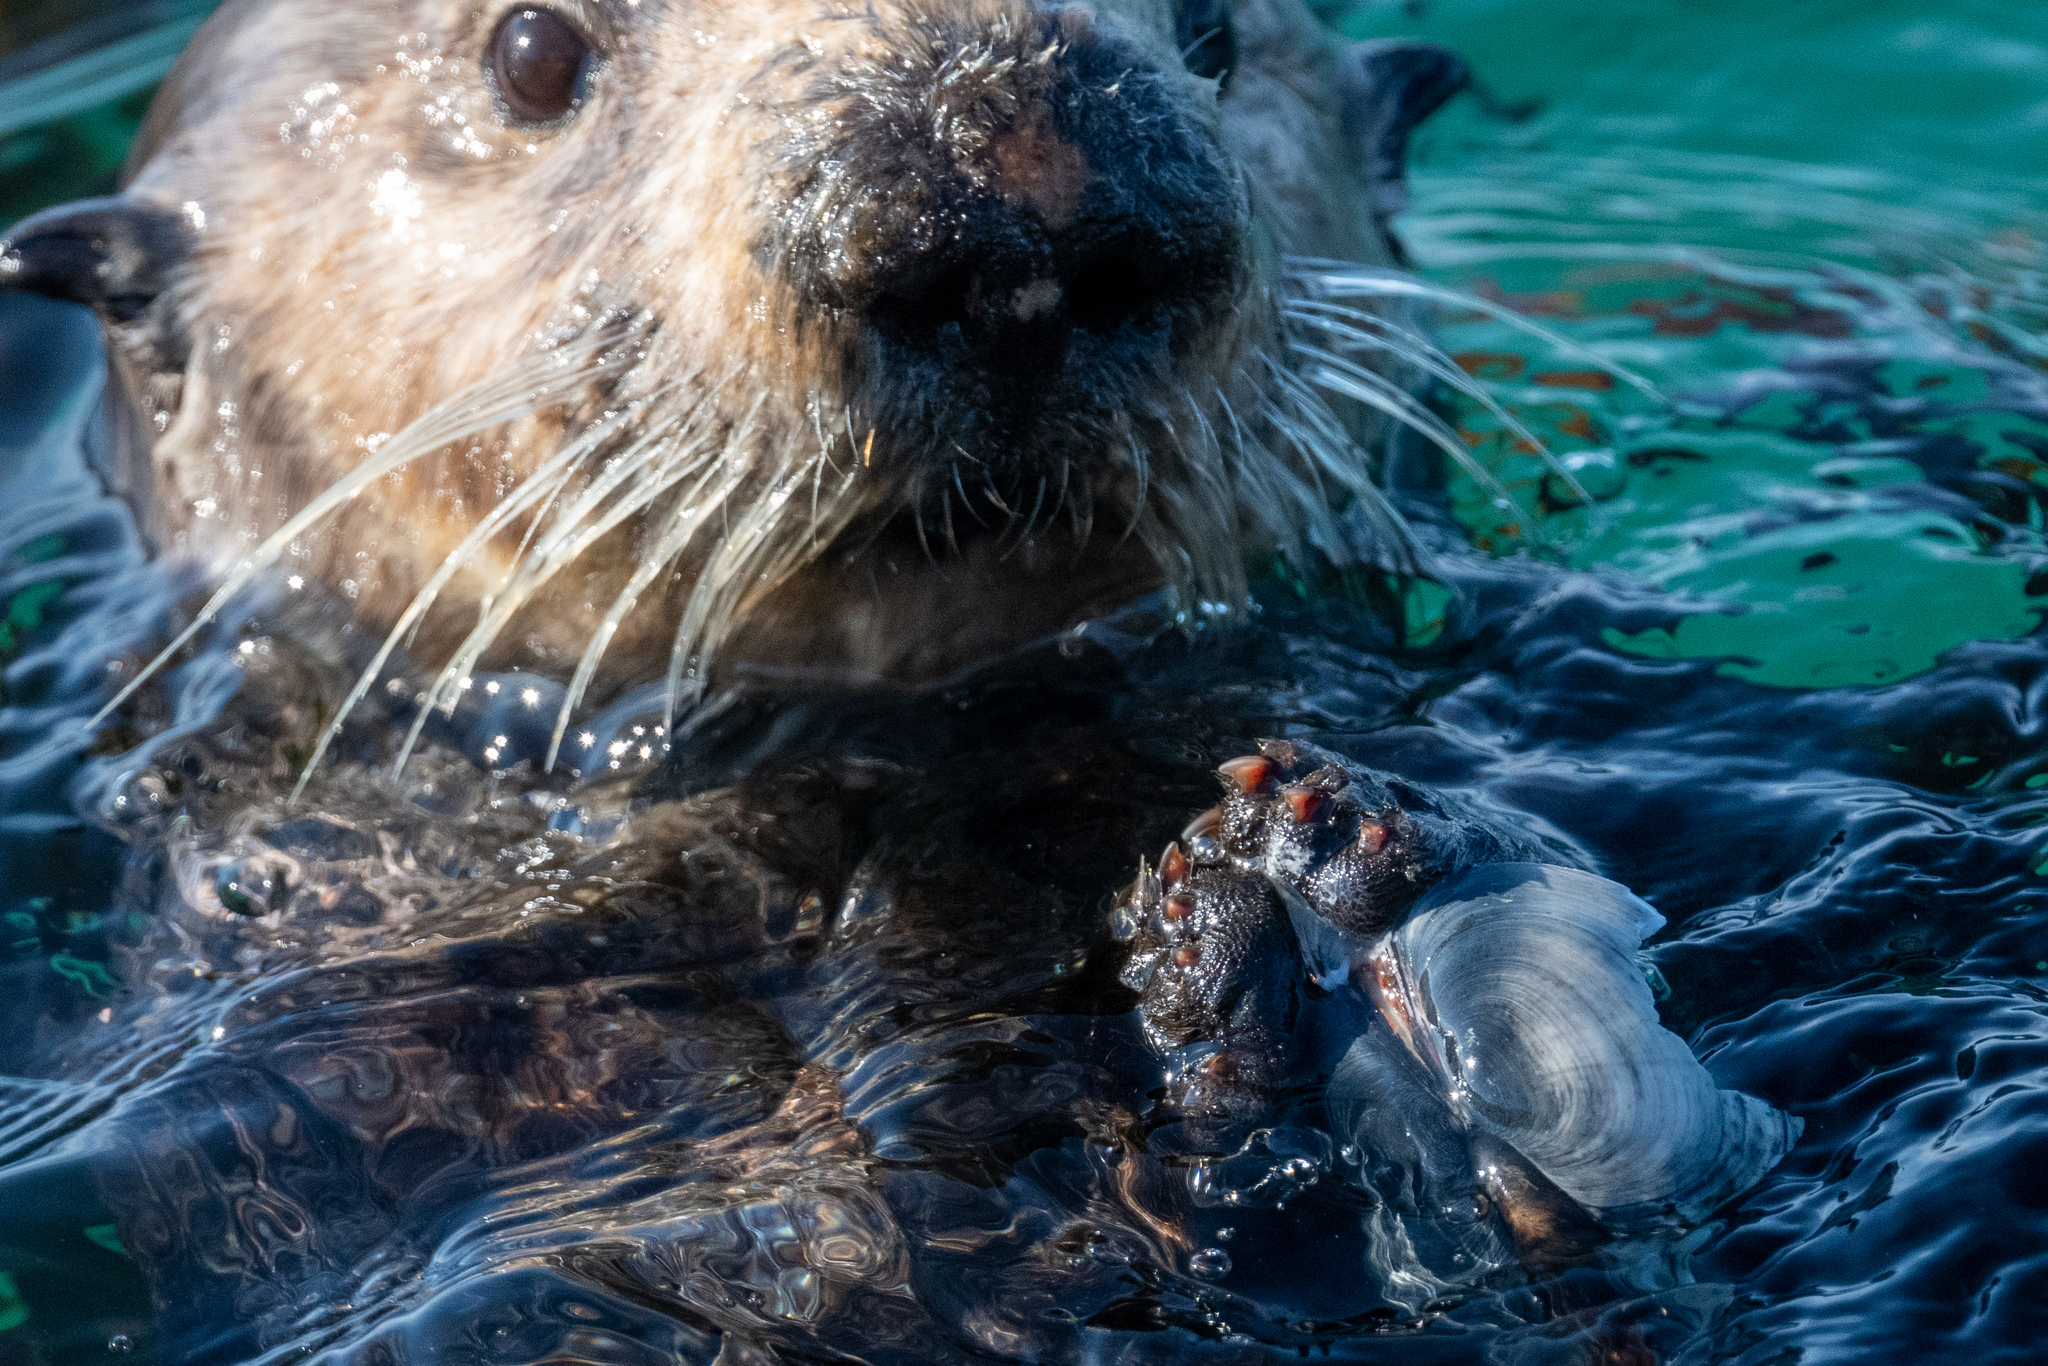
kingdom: Animalia
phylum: Chordata
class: Mammalia
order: Carnivora
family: Mustelidae
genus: Enhydra
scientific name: Enhydra lutris
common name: Sea otter
